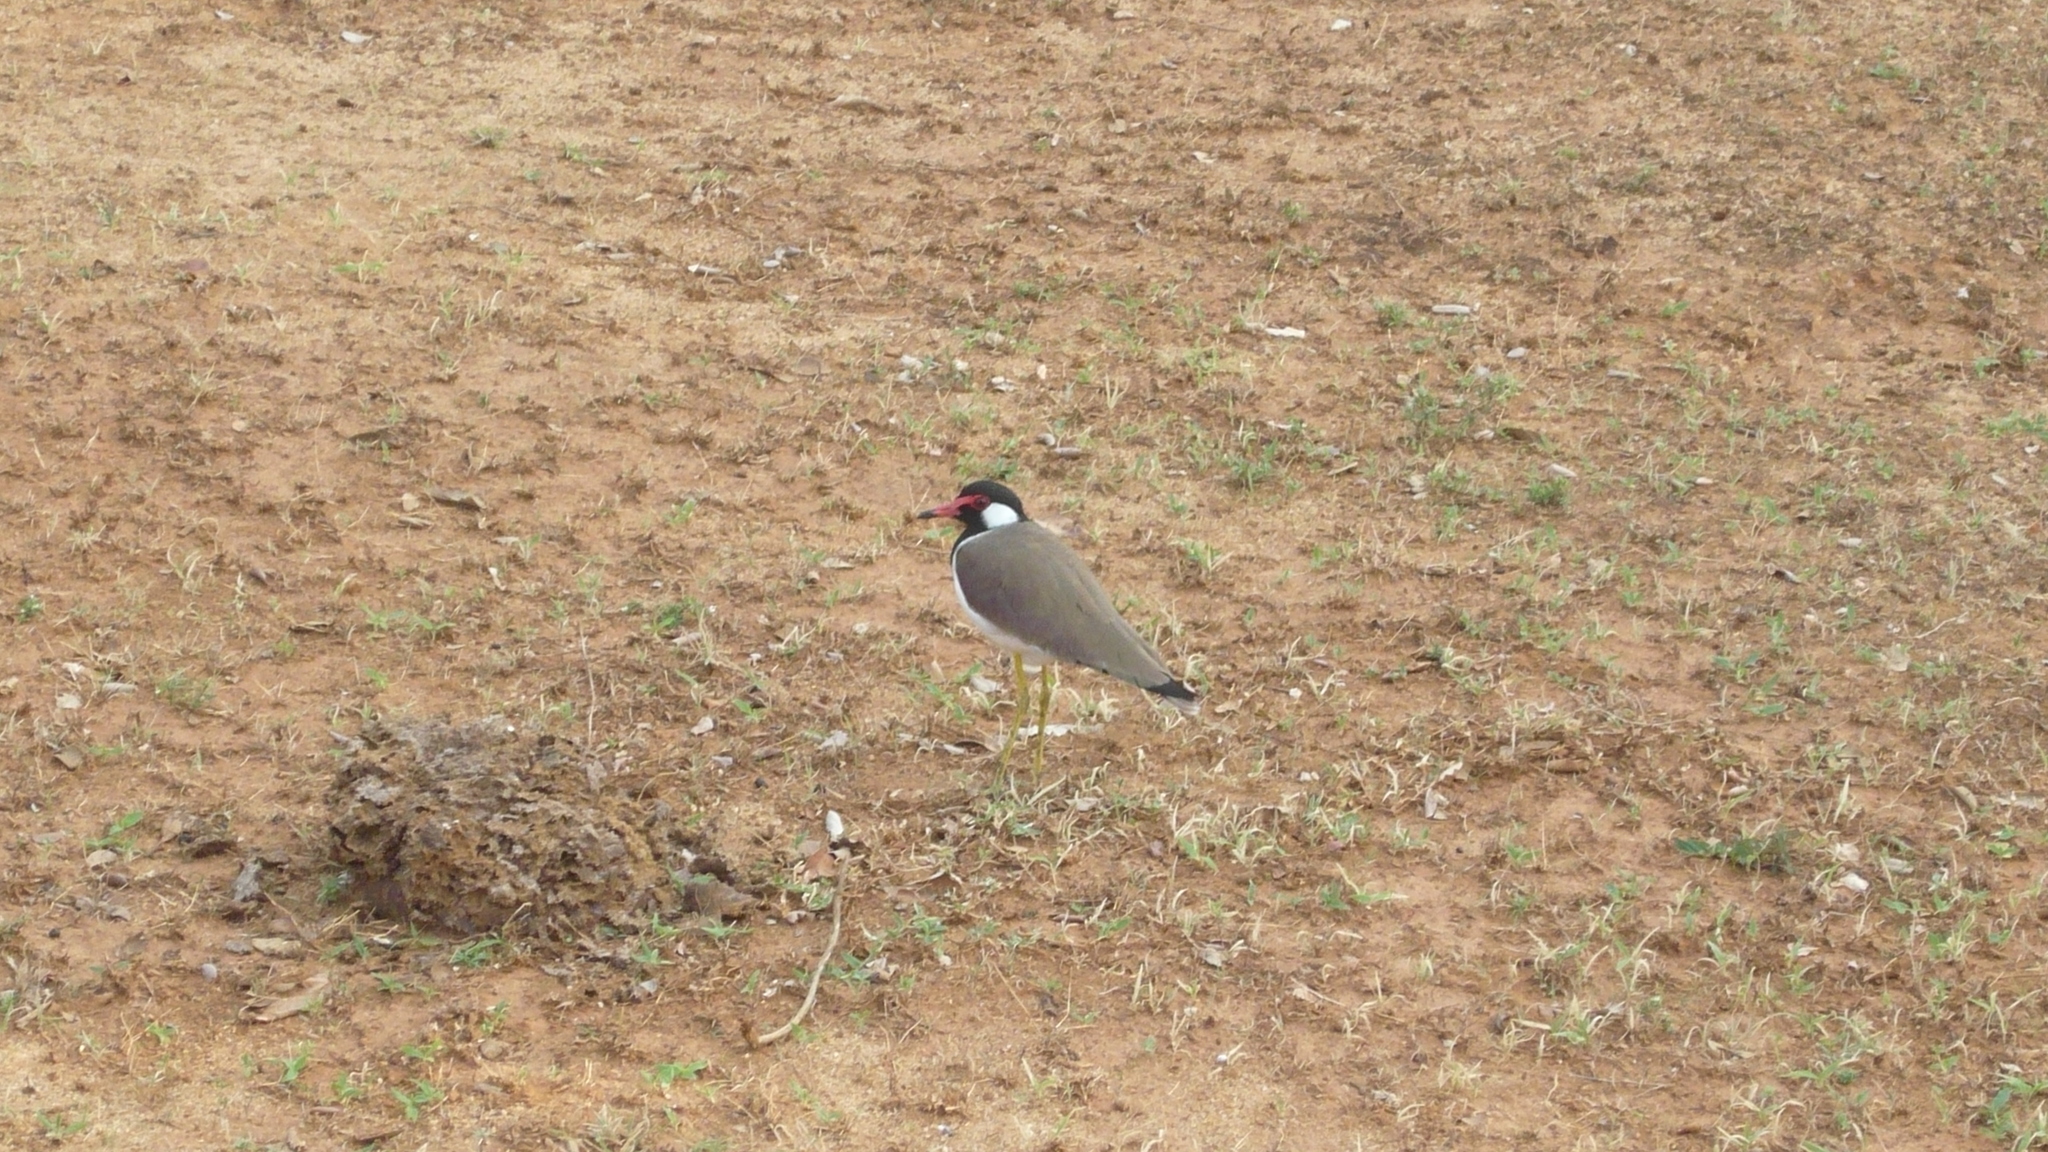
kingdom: Animalia
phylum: Chordata
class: Aves
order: Charadriiformes
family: Charadriidae
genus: Vanellus
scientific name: Vanellus indicus
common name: Red-wattled lapwing
